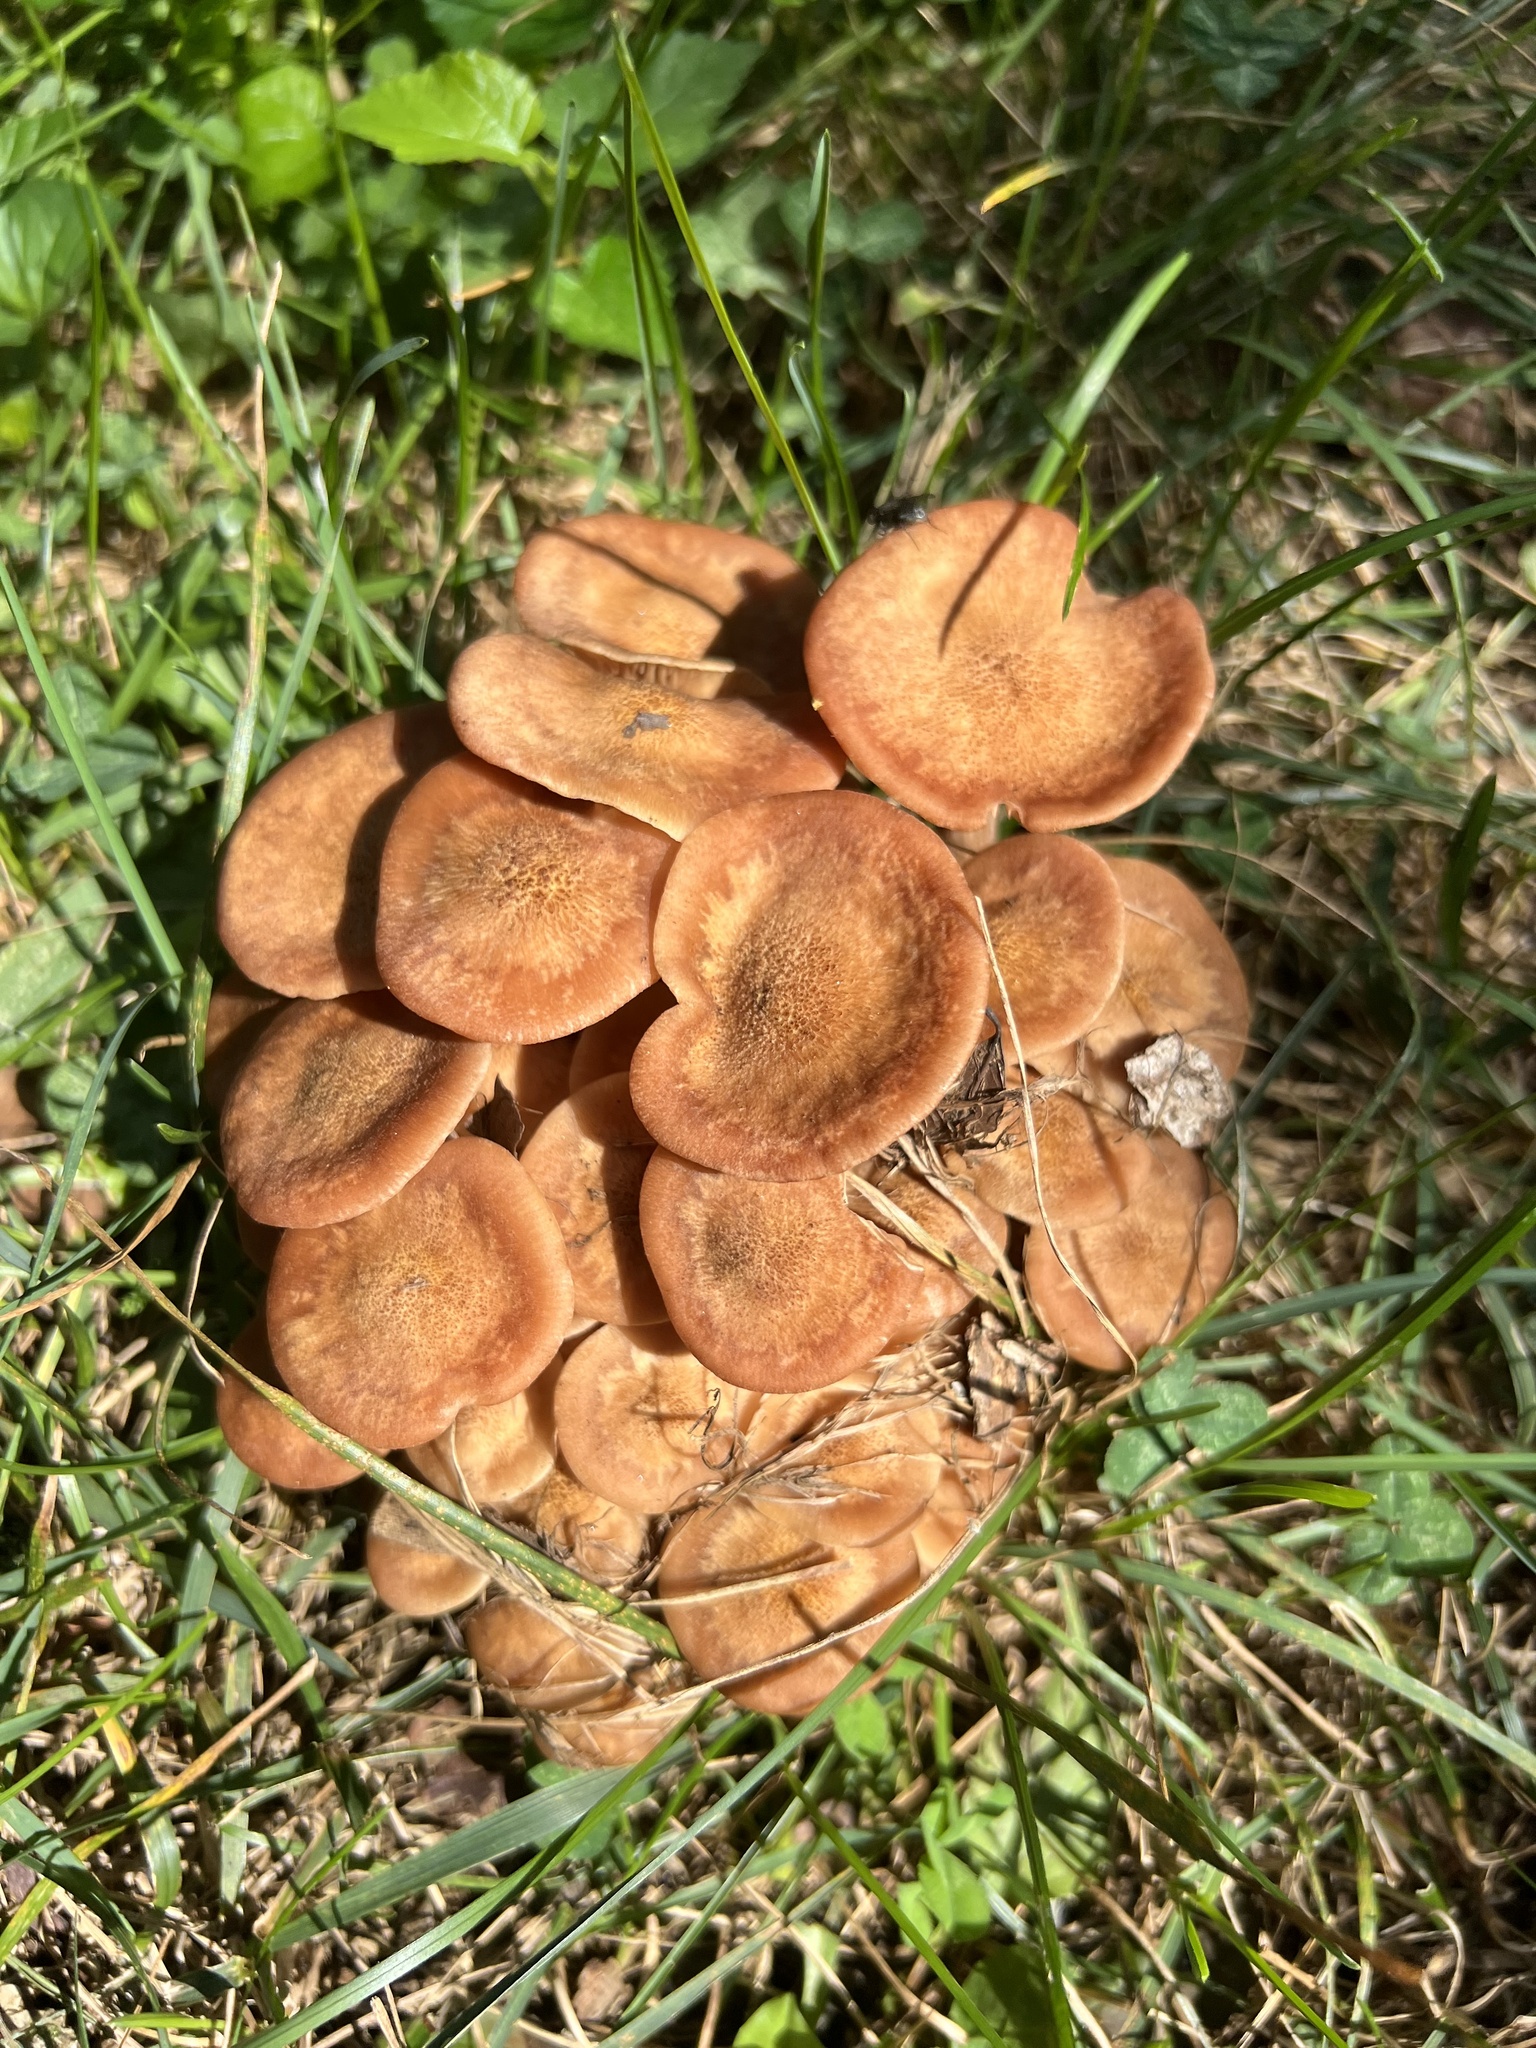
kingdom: Fungi
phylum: Basidiomycota
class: Agaricomycetes
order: Agaricales
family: Physalacriaceae
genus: Desarmillaria
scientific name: Desarmillaria caespitosa
